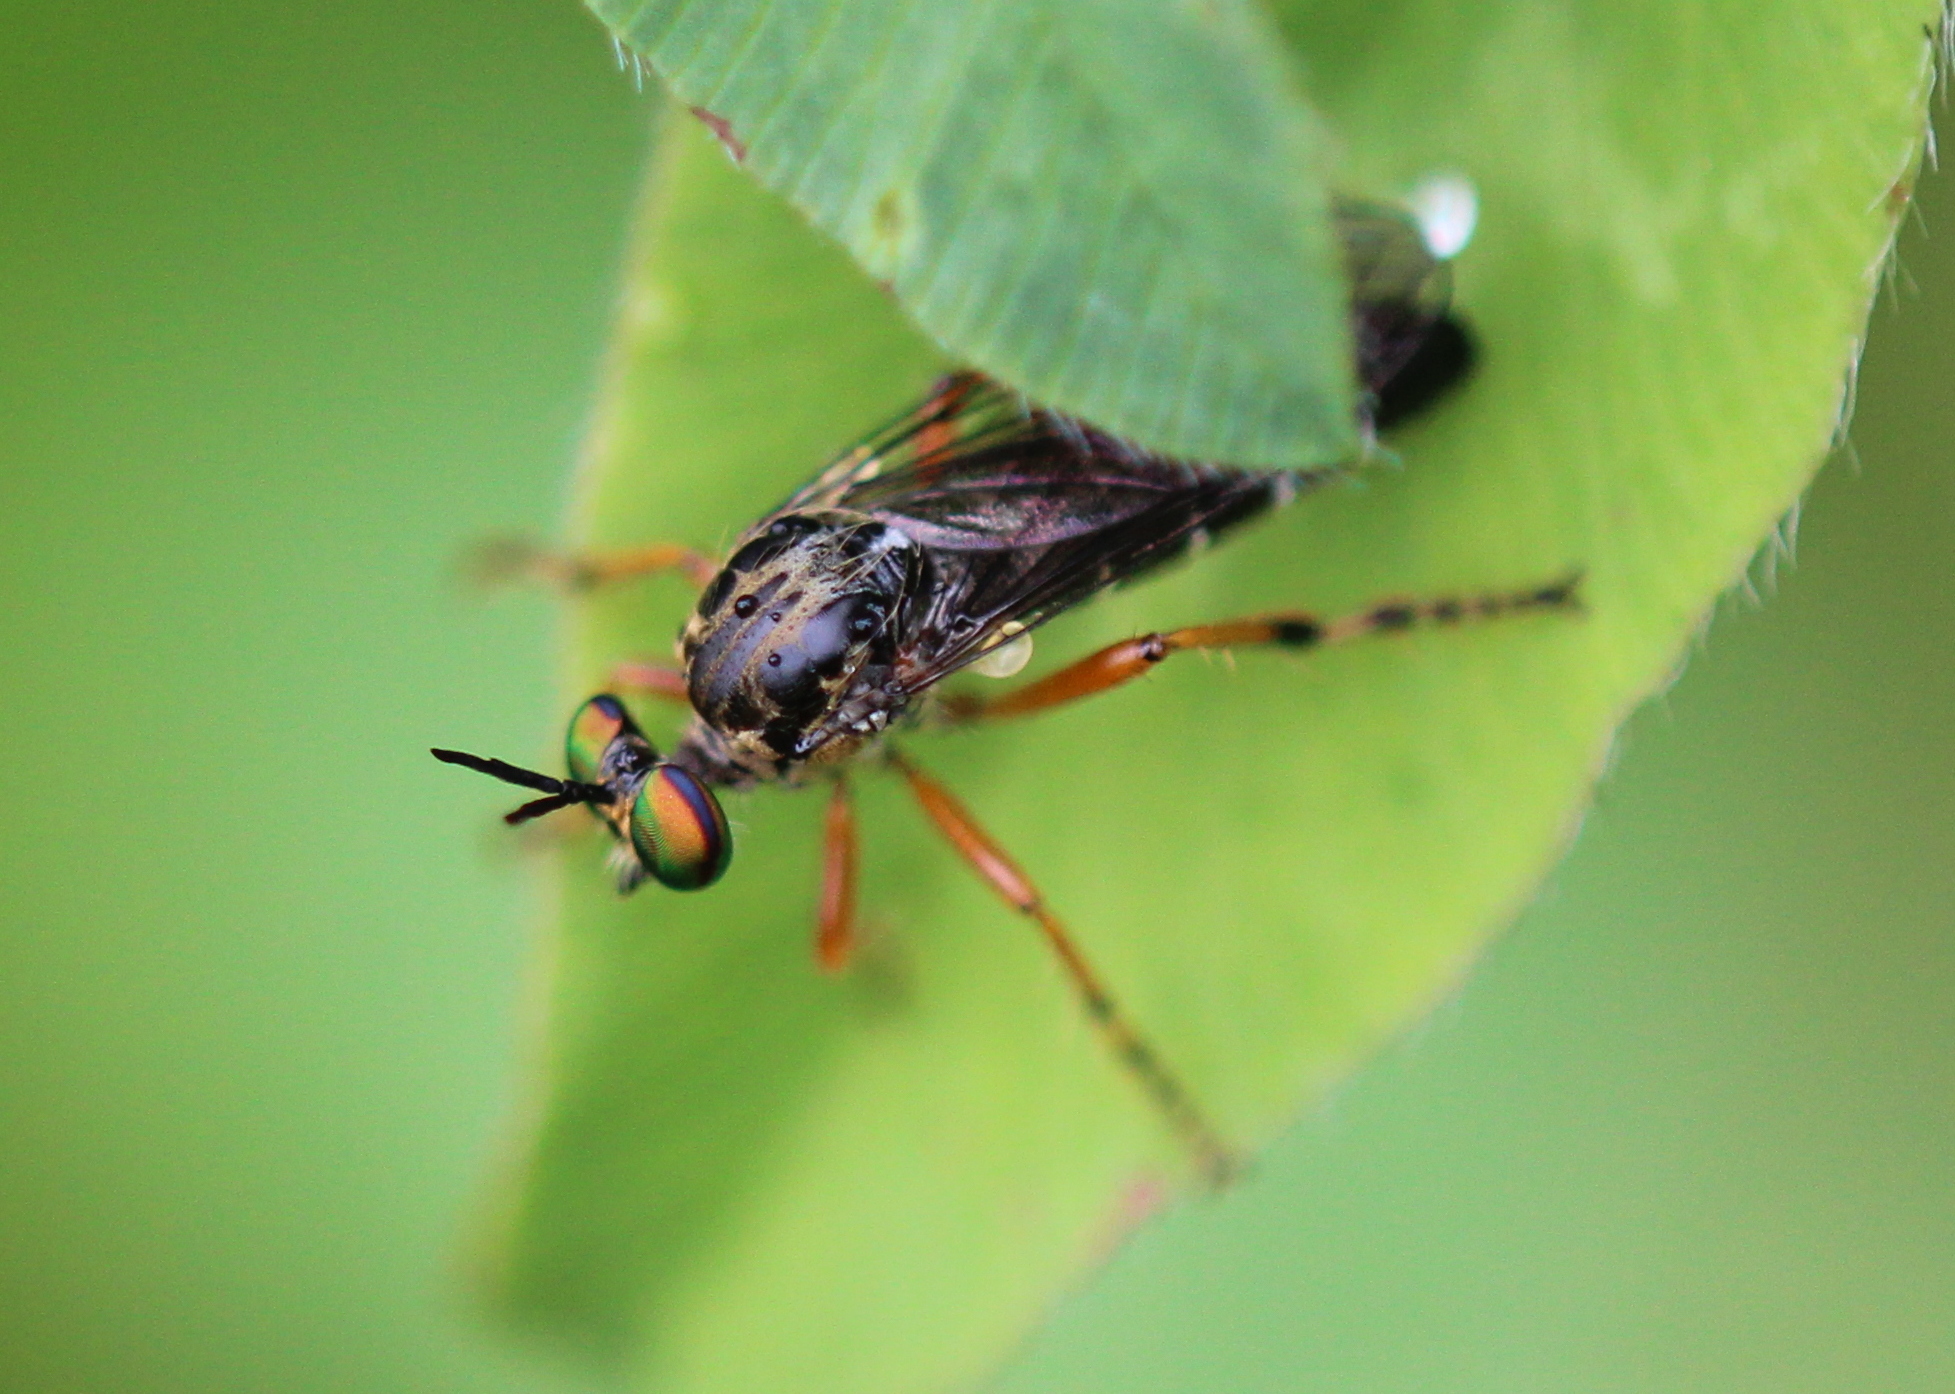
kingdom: Animalia
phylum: Arthropoda
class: Insecta
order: Diptera
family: Asilidae
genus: Taracticus
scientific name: Taracticus octopunctatus
